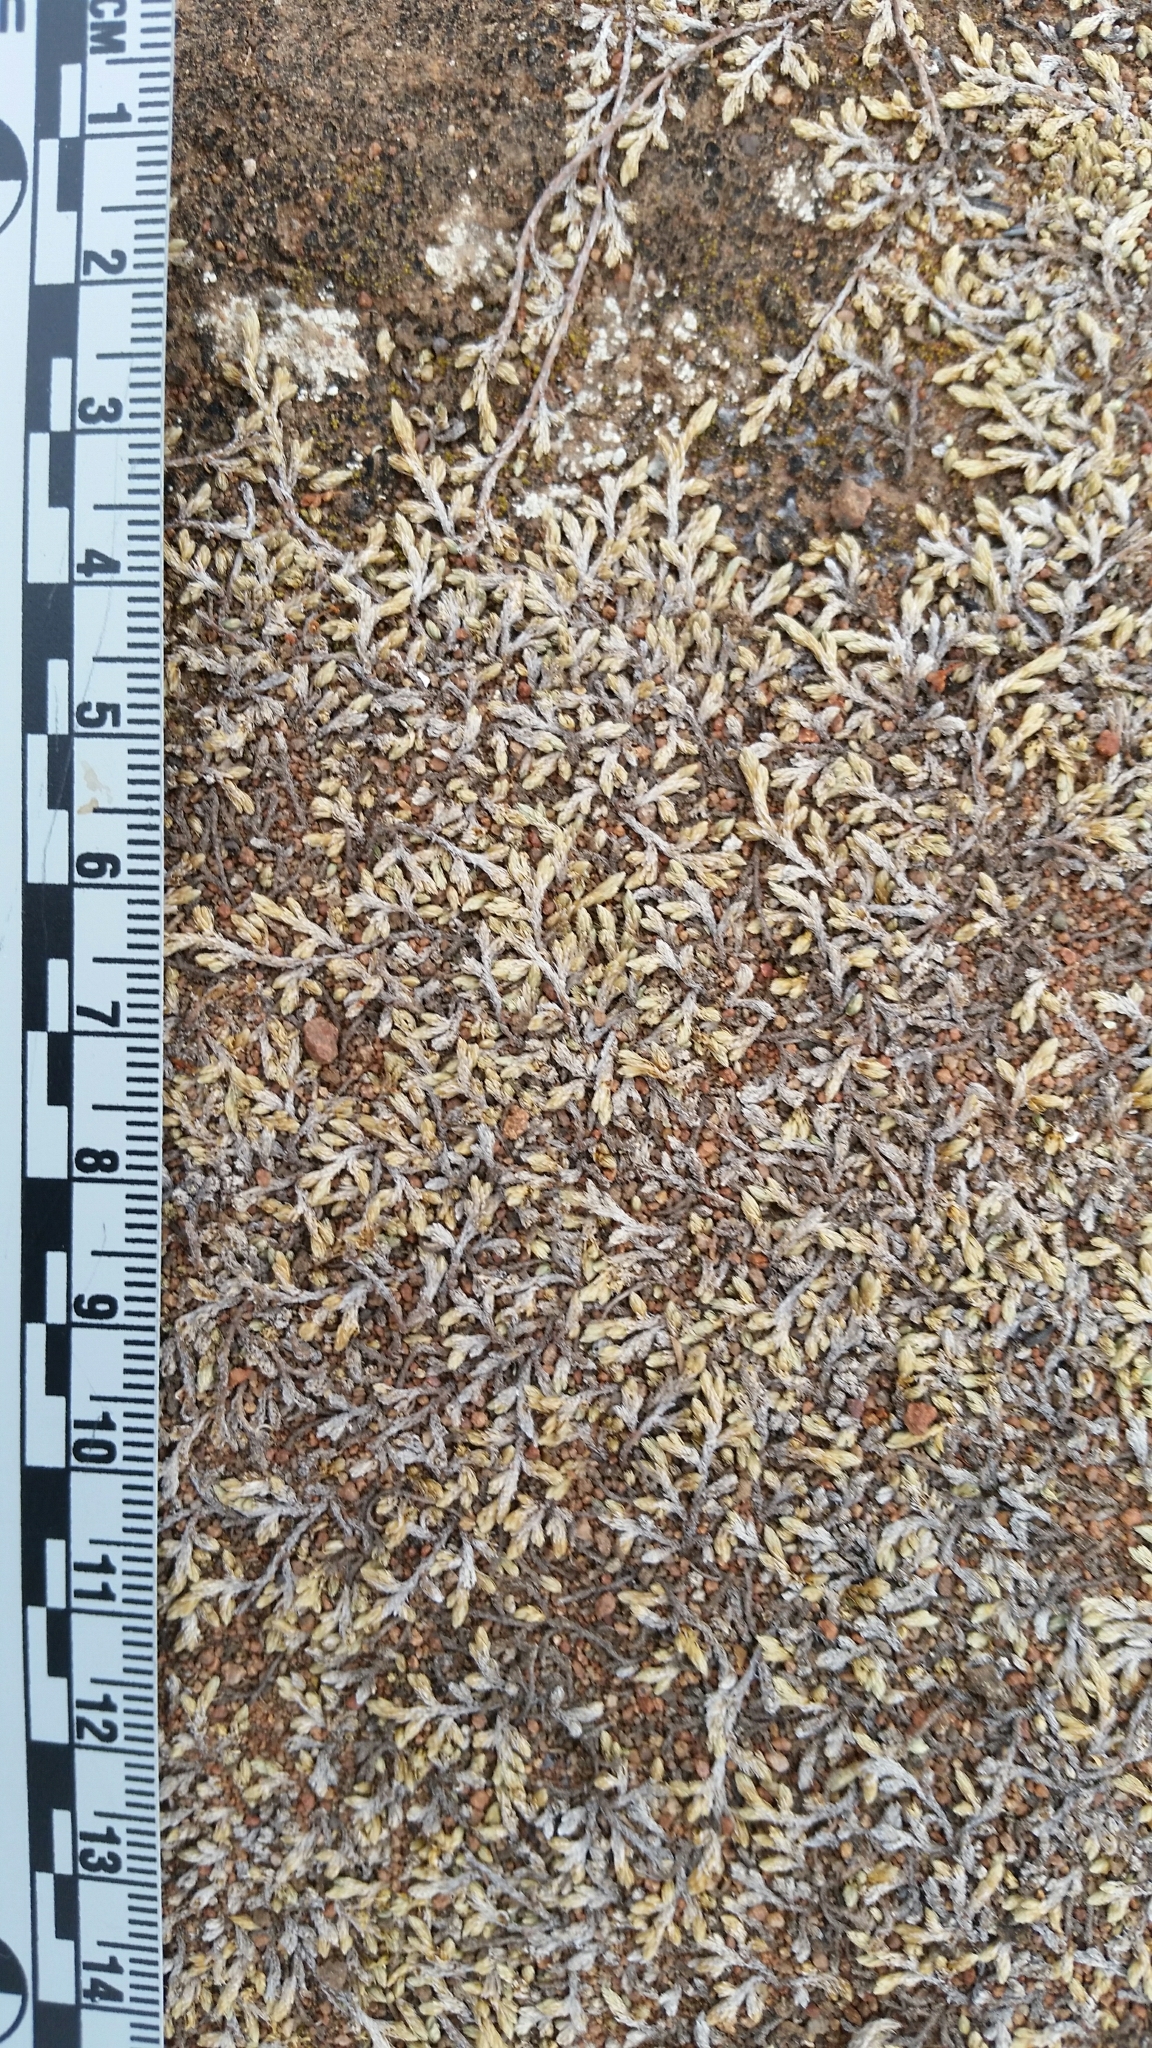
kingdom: Plantae
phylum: Tracheophyta
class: Lycopodiopsida
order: Selaginellales
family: Selaginellaceae
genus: Selaginella
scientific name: Selaginella cinerascens
